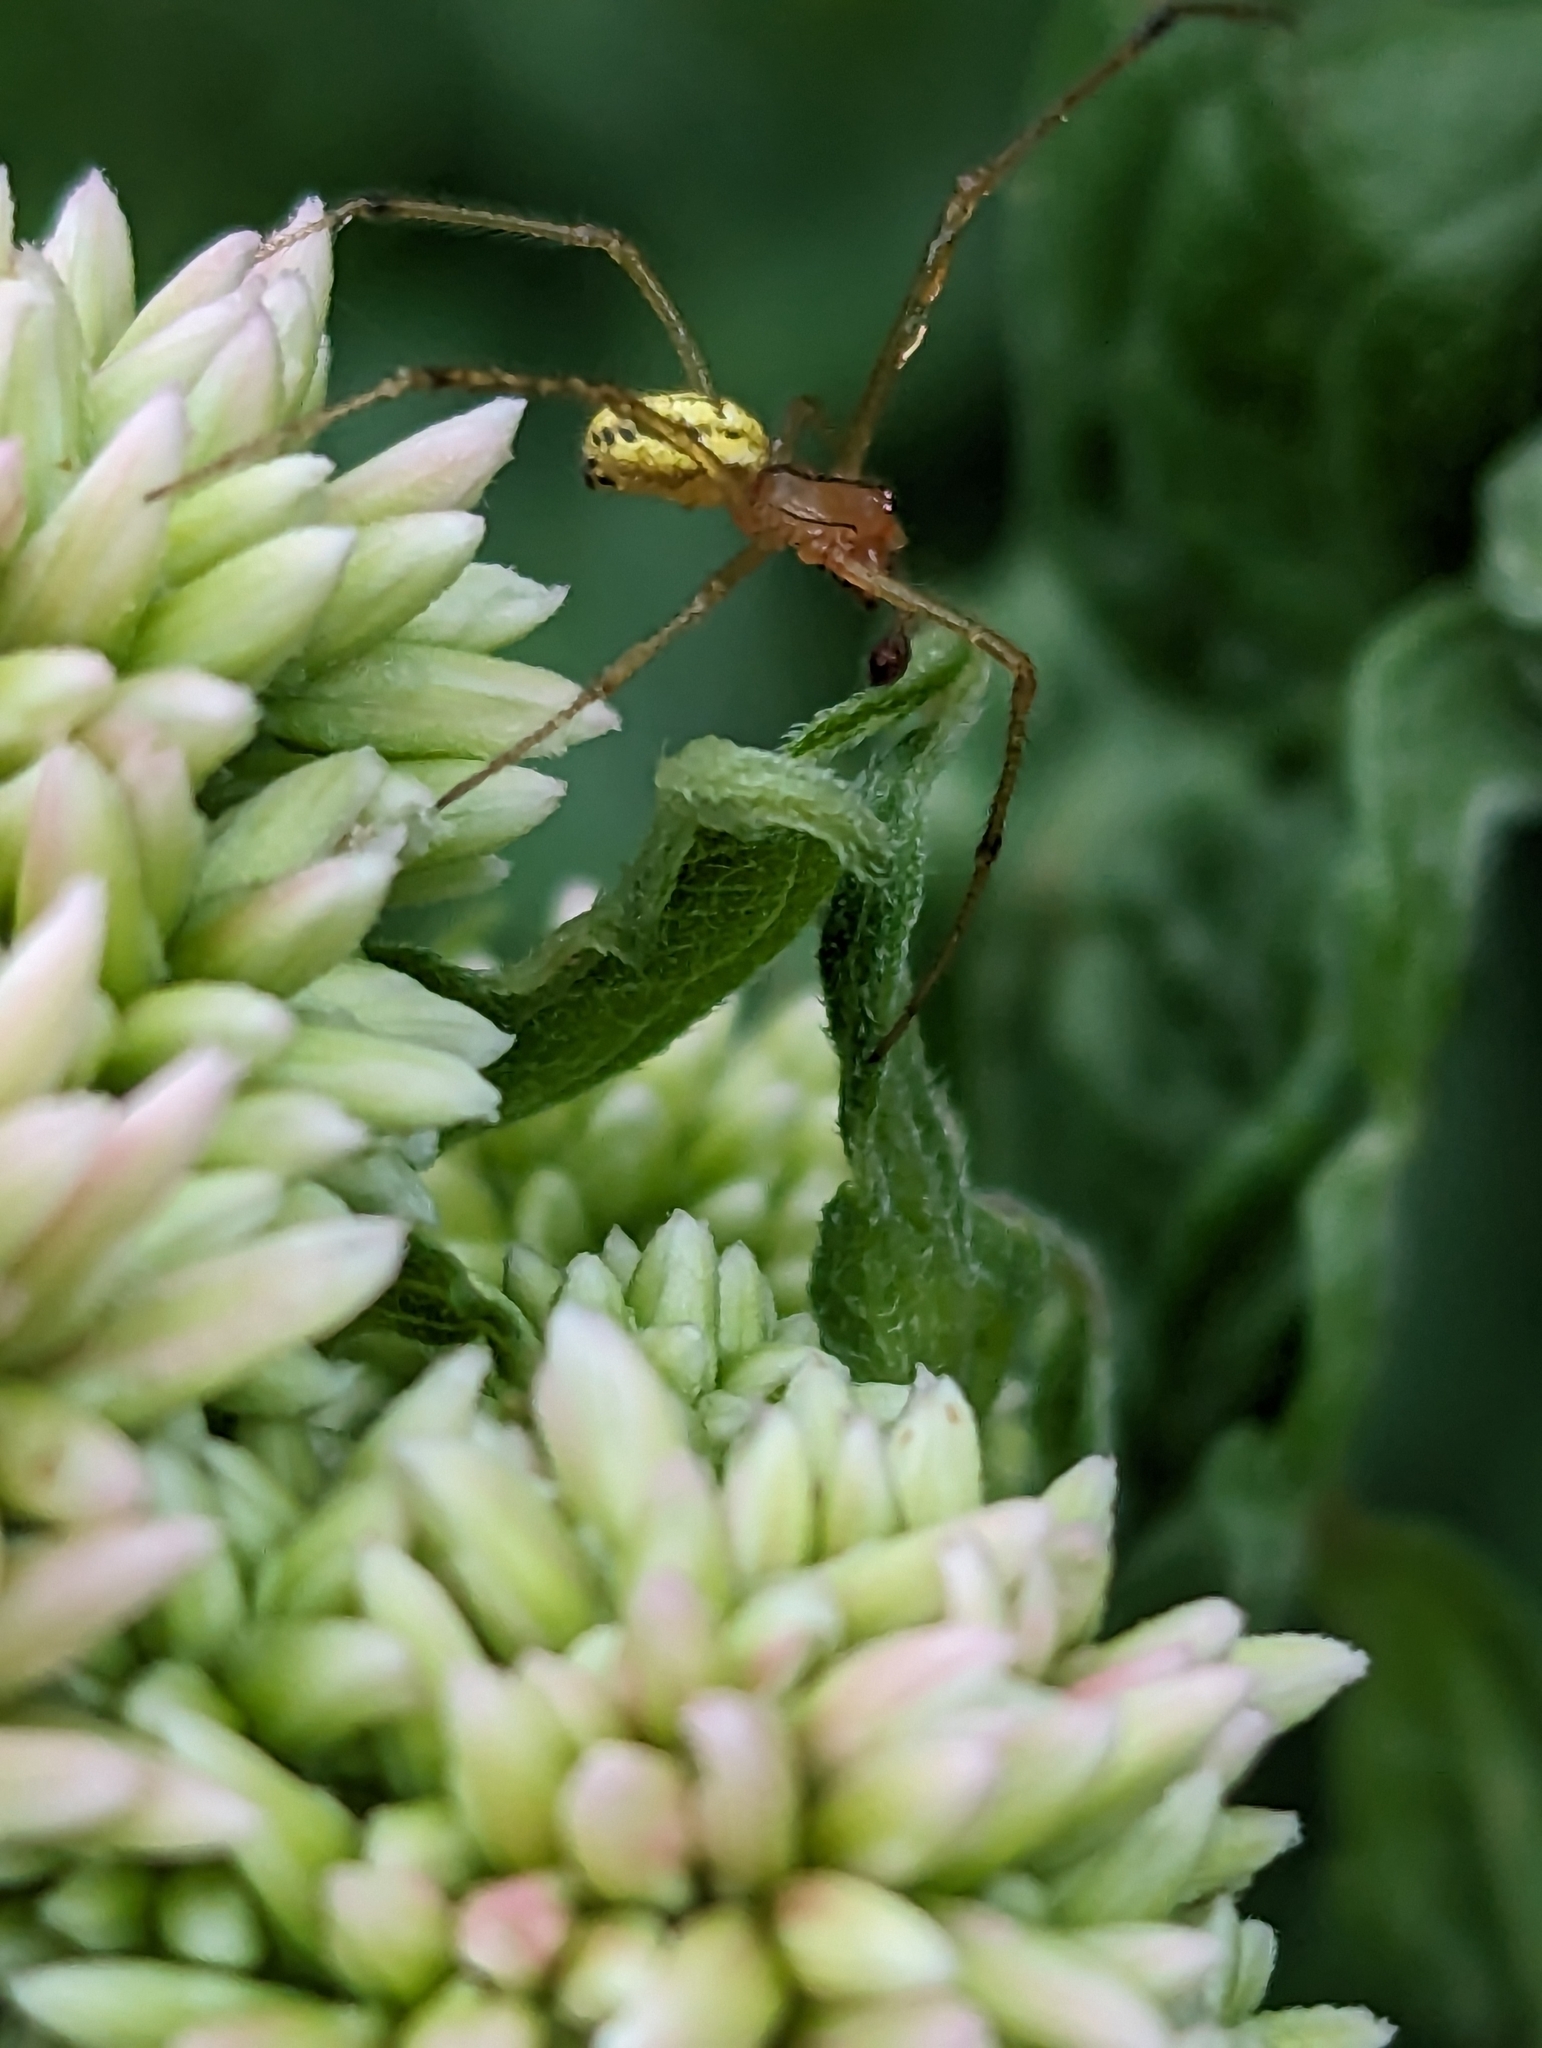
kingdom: Animalia
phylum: Arthropoda
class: Arachnida
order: Araneae
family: Theridiidae
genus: Enoplognatha
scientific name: Enoplognatha
